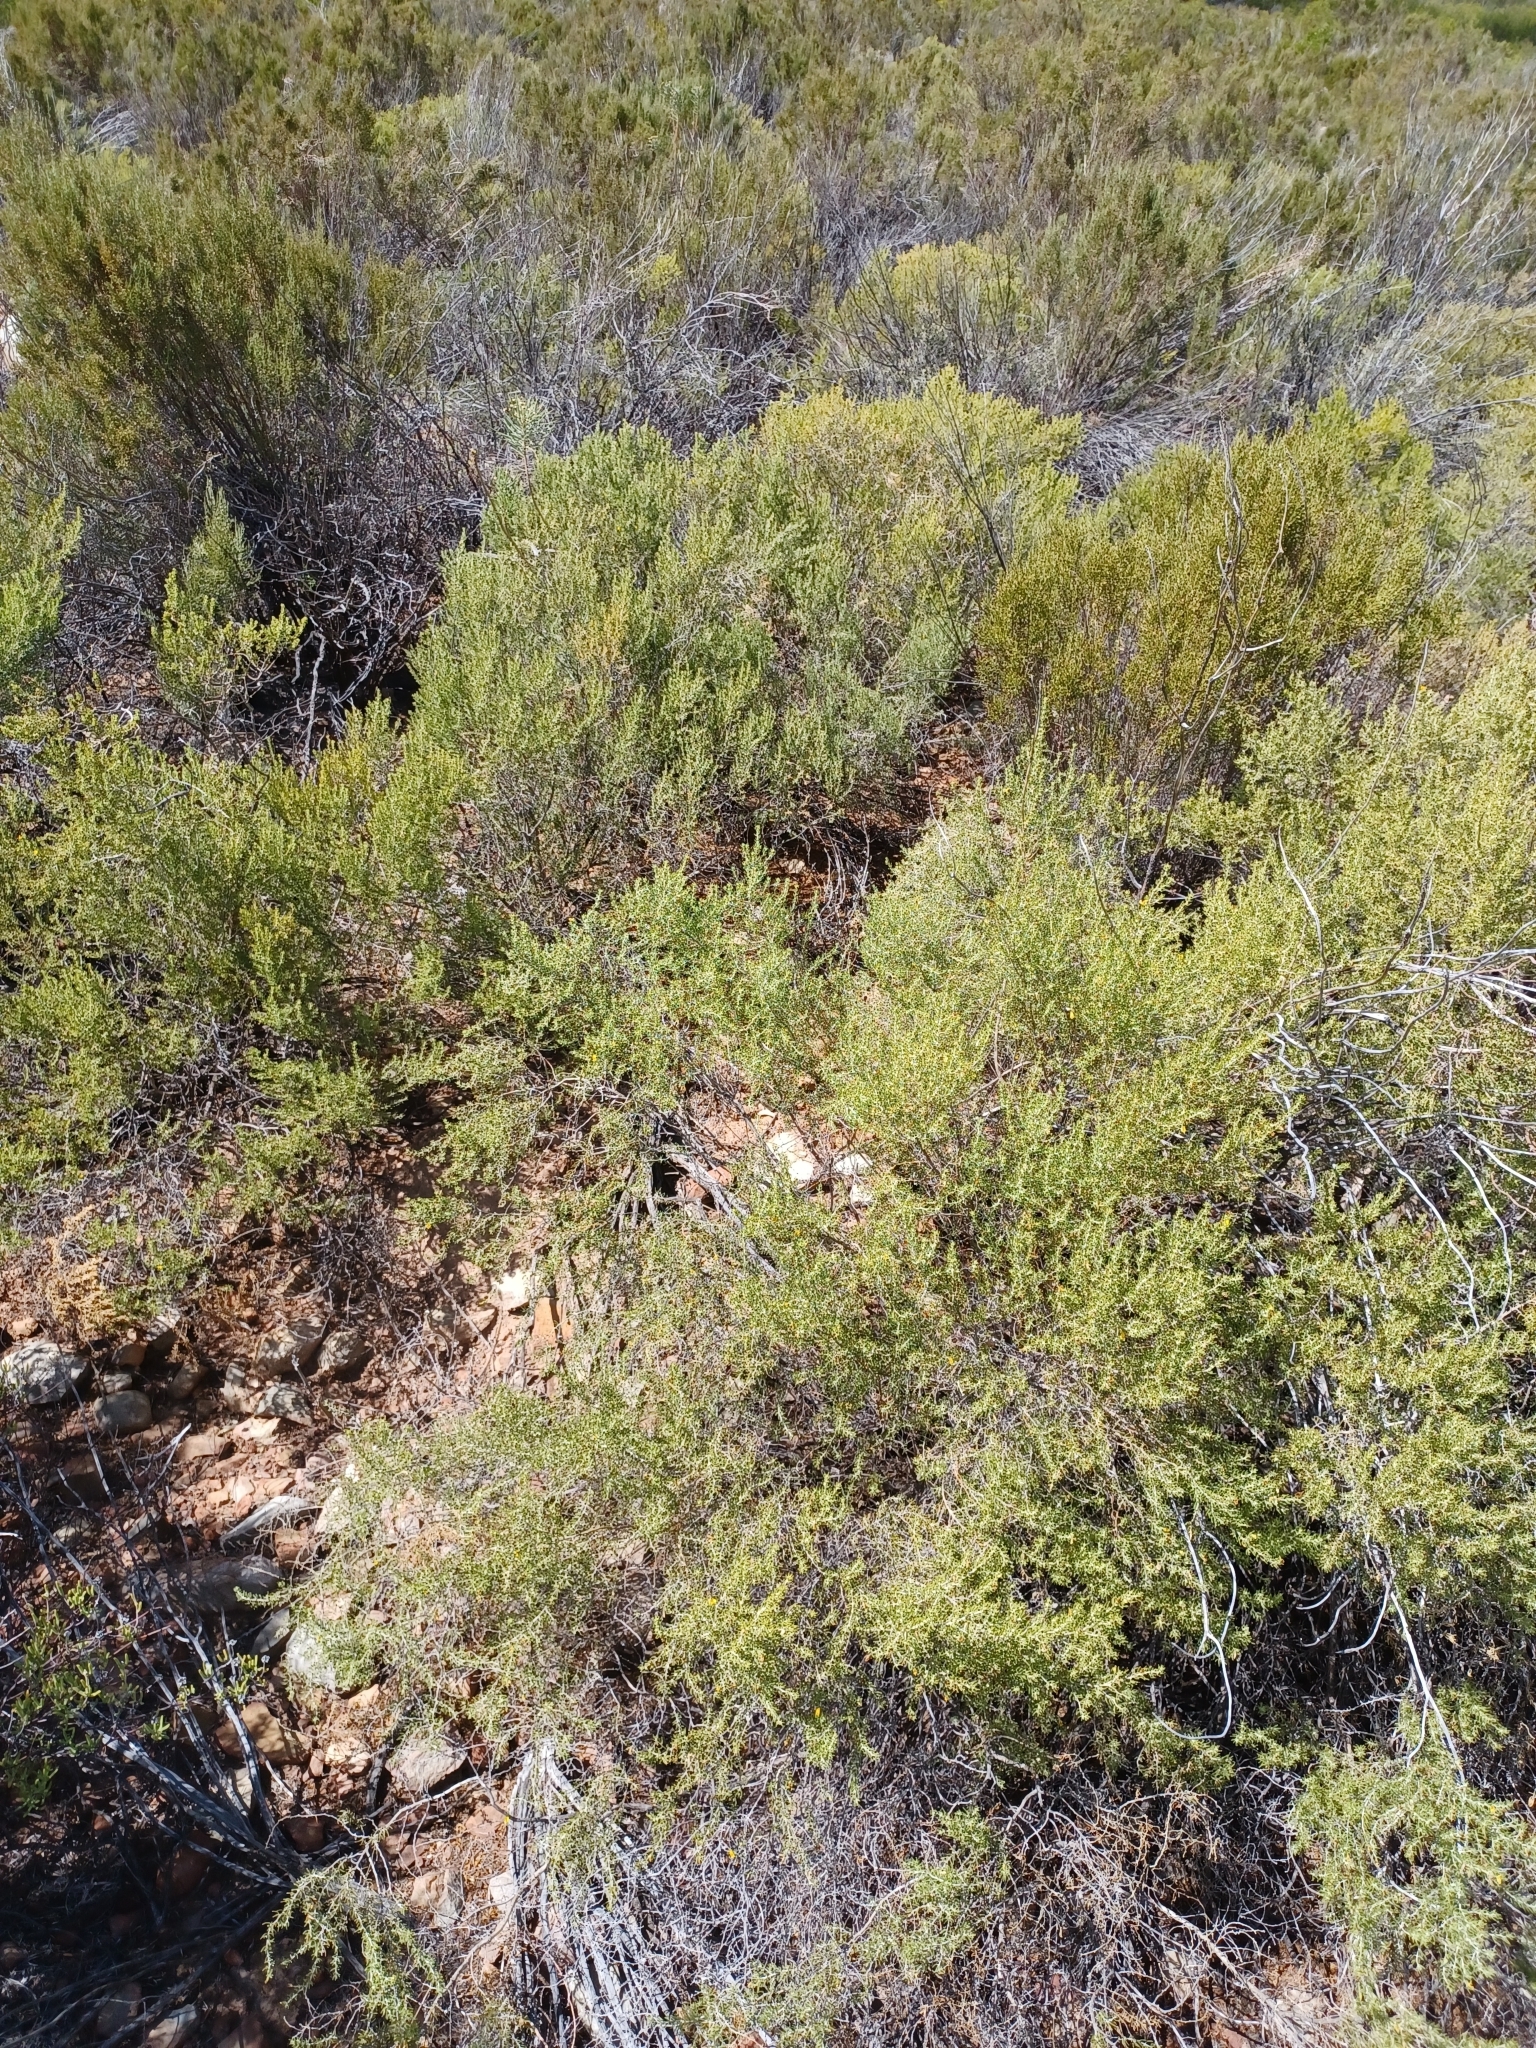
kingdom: Plantae
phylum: Tracheophyta
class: Magnoliopsida
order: Fabales
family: Fabaceae
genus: Aspalathus
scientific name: Aspalathus lactea
